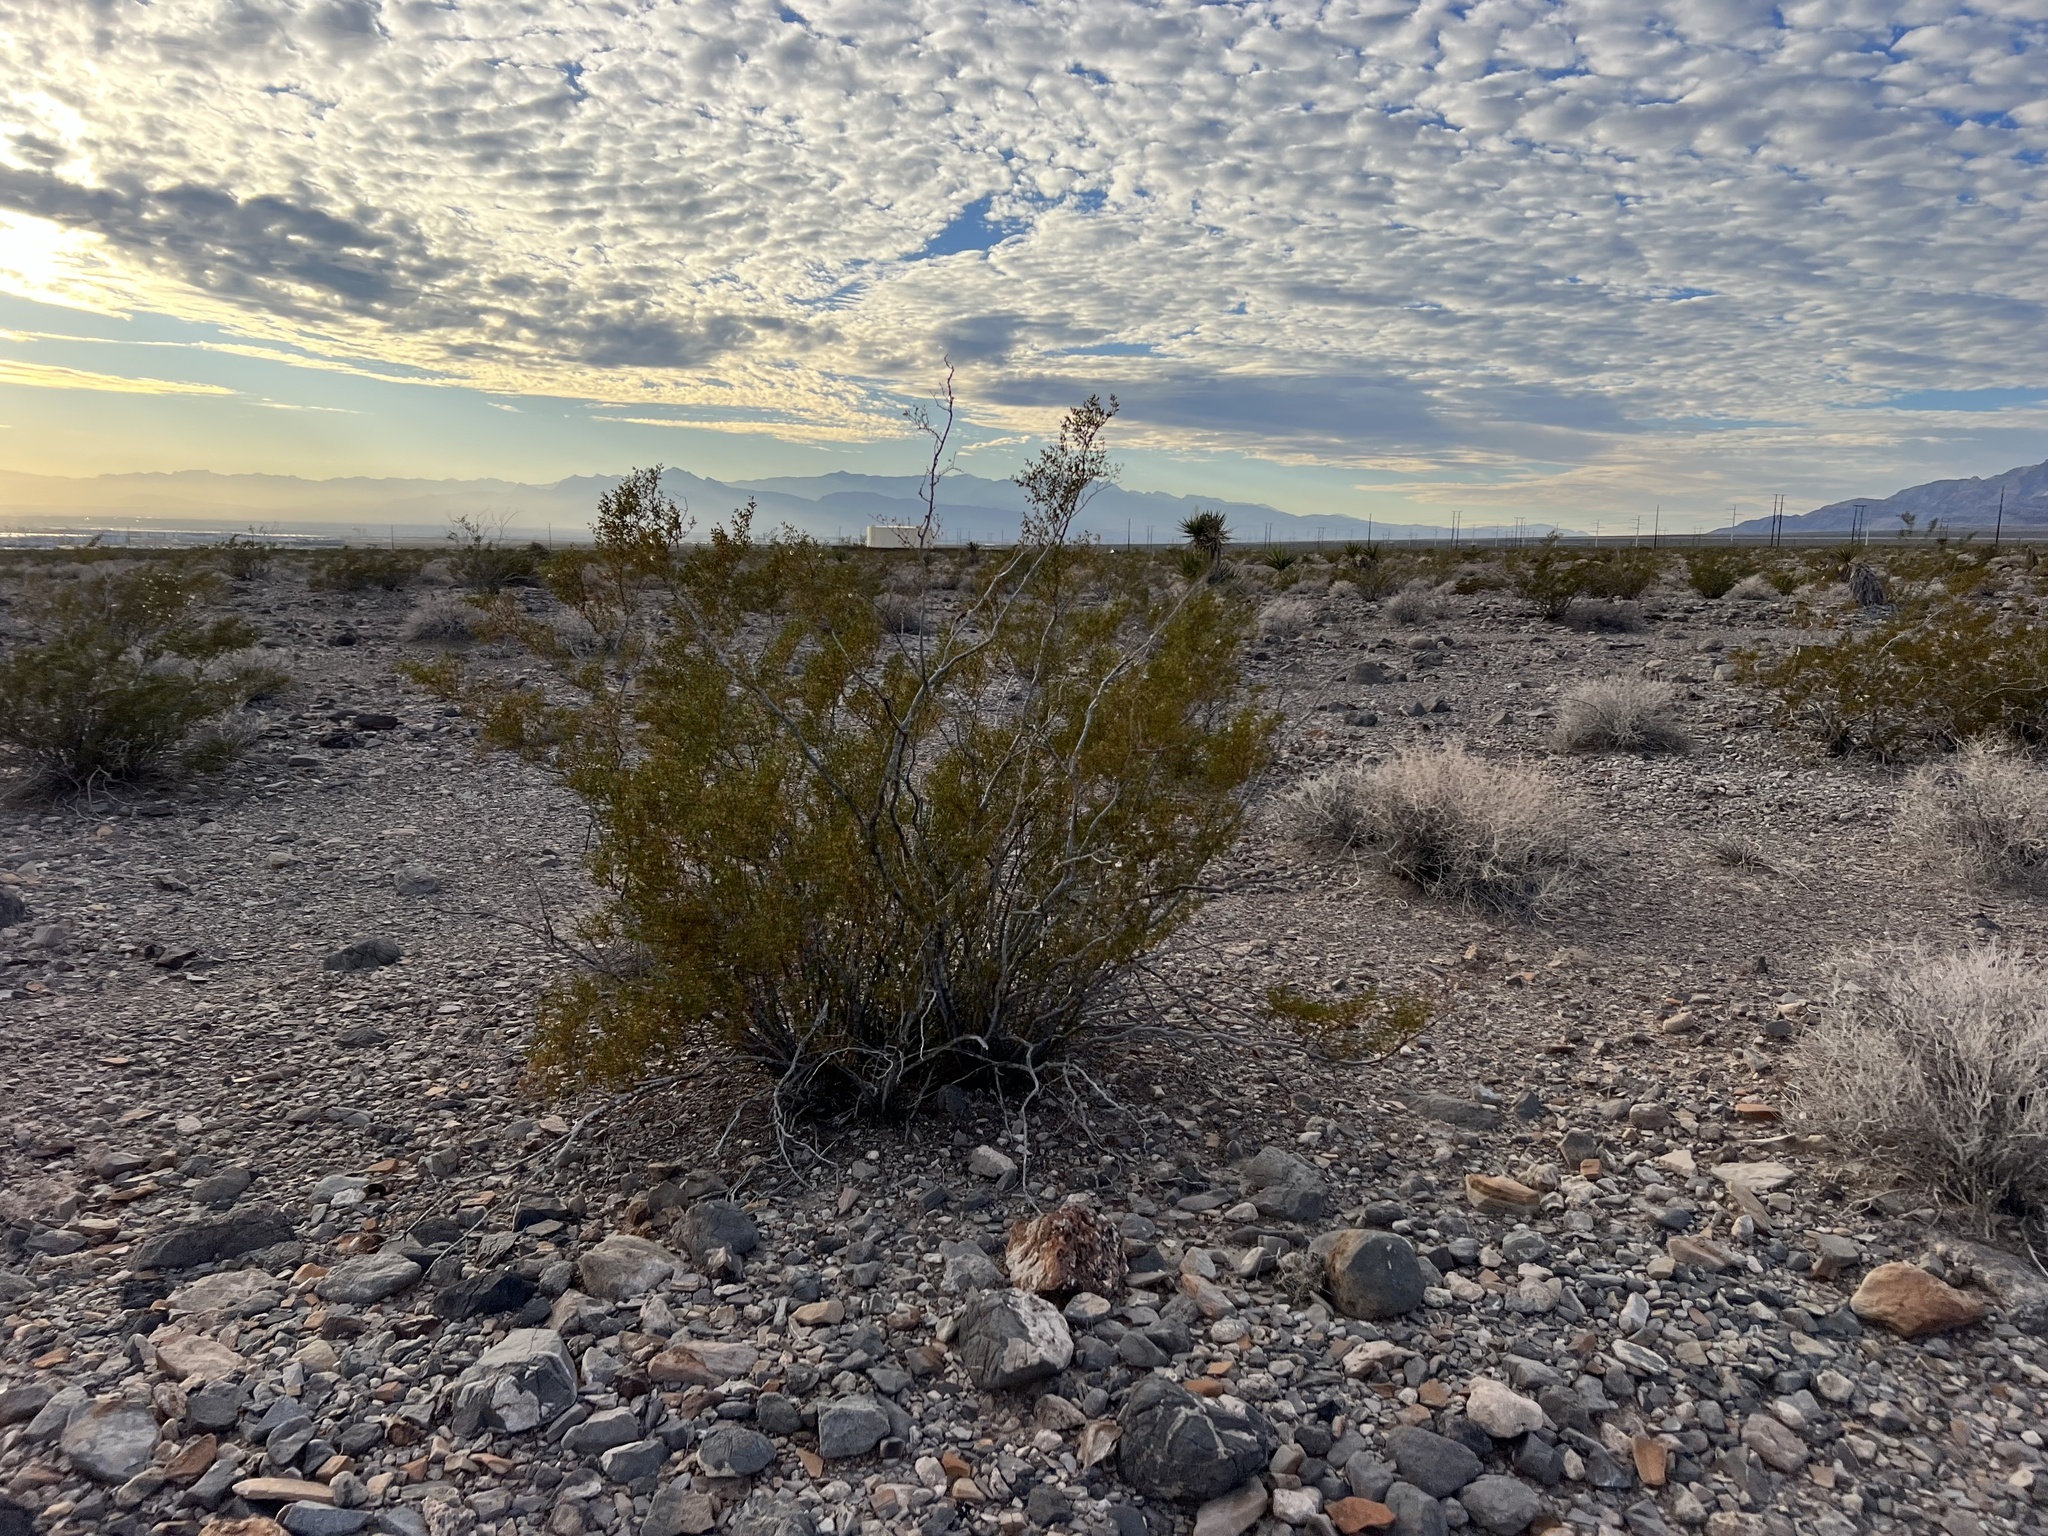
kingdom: Plantae
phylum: Tracheophyta
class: Magnoliopsida
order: Zygophyllales
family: Zygophyllaceae
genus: Larrea
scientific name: Larrea tridentata
